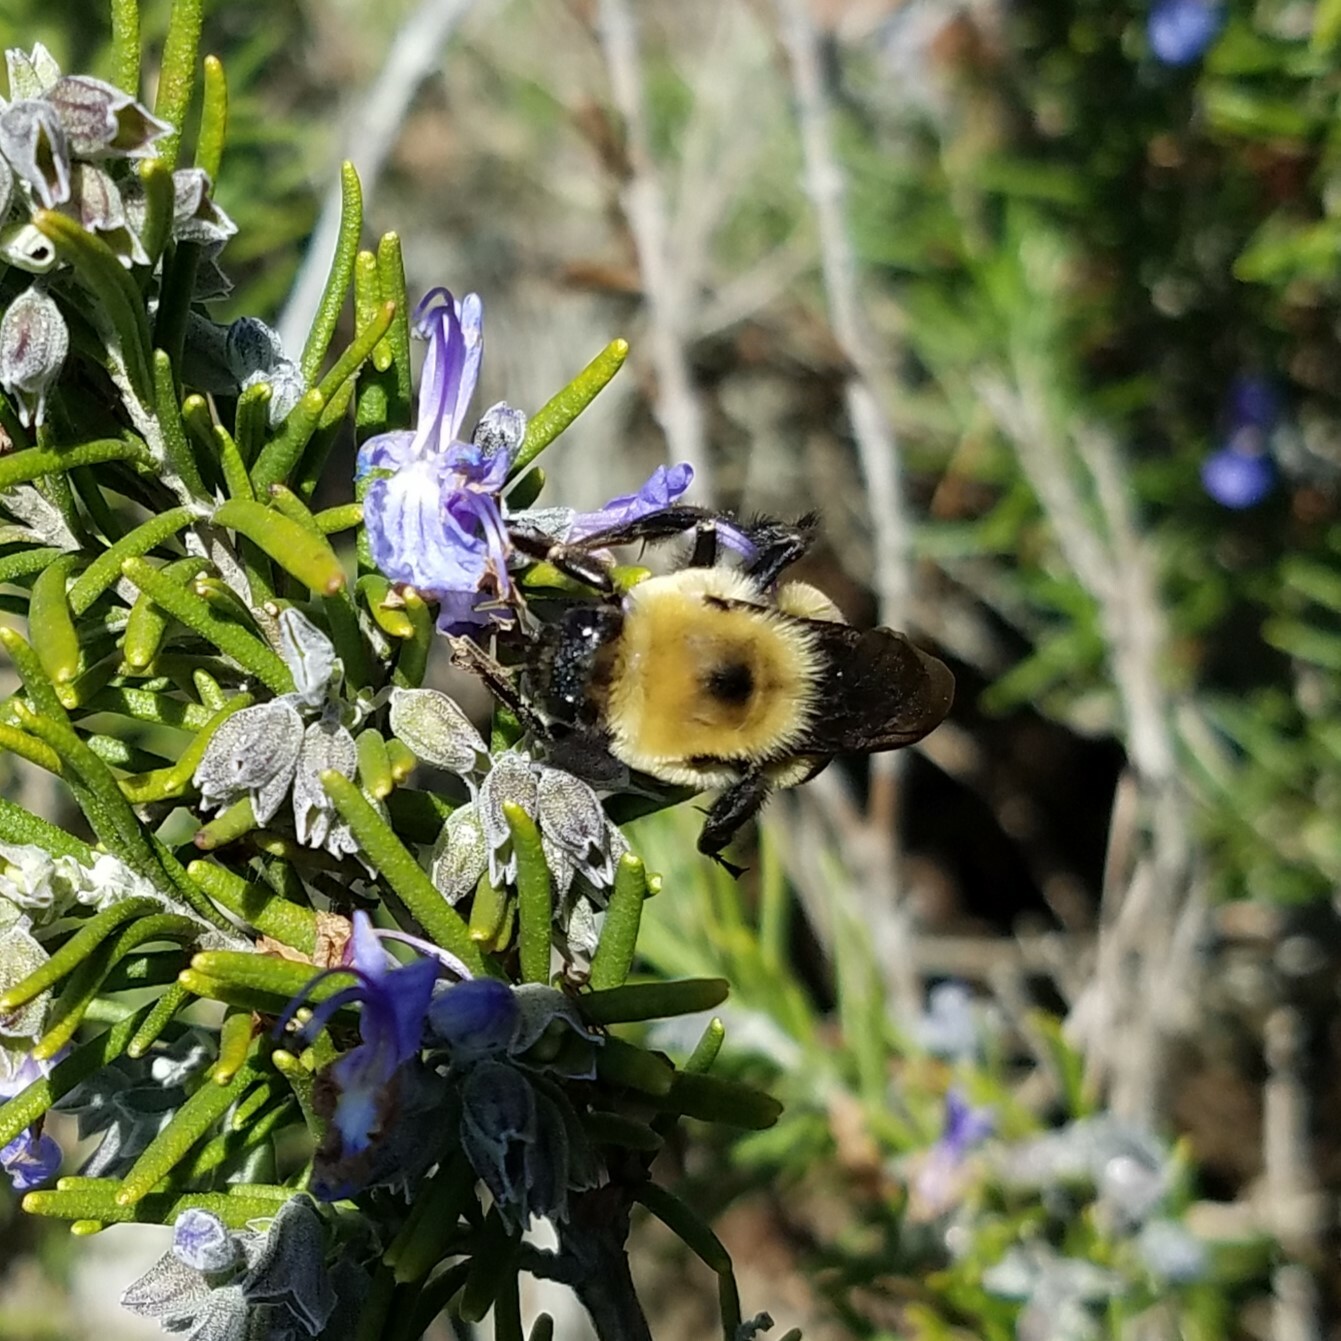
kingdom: Animalia
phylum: Arthropoda
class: Insecta
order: Hymenoptera
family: Apidae
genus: Bombus
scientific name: Bombus griseocollis
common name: Brown-belted bumble bee
